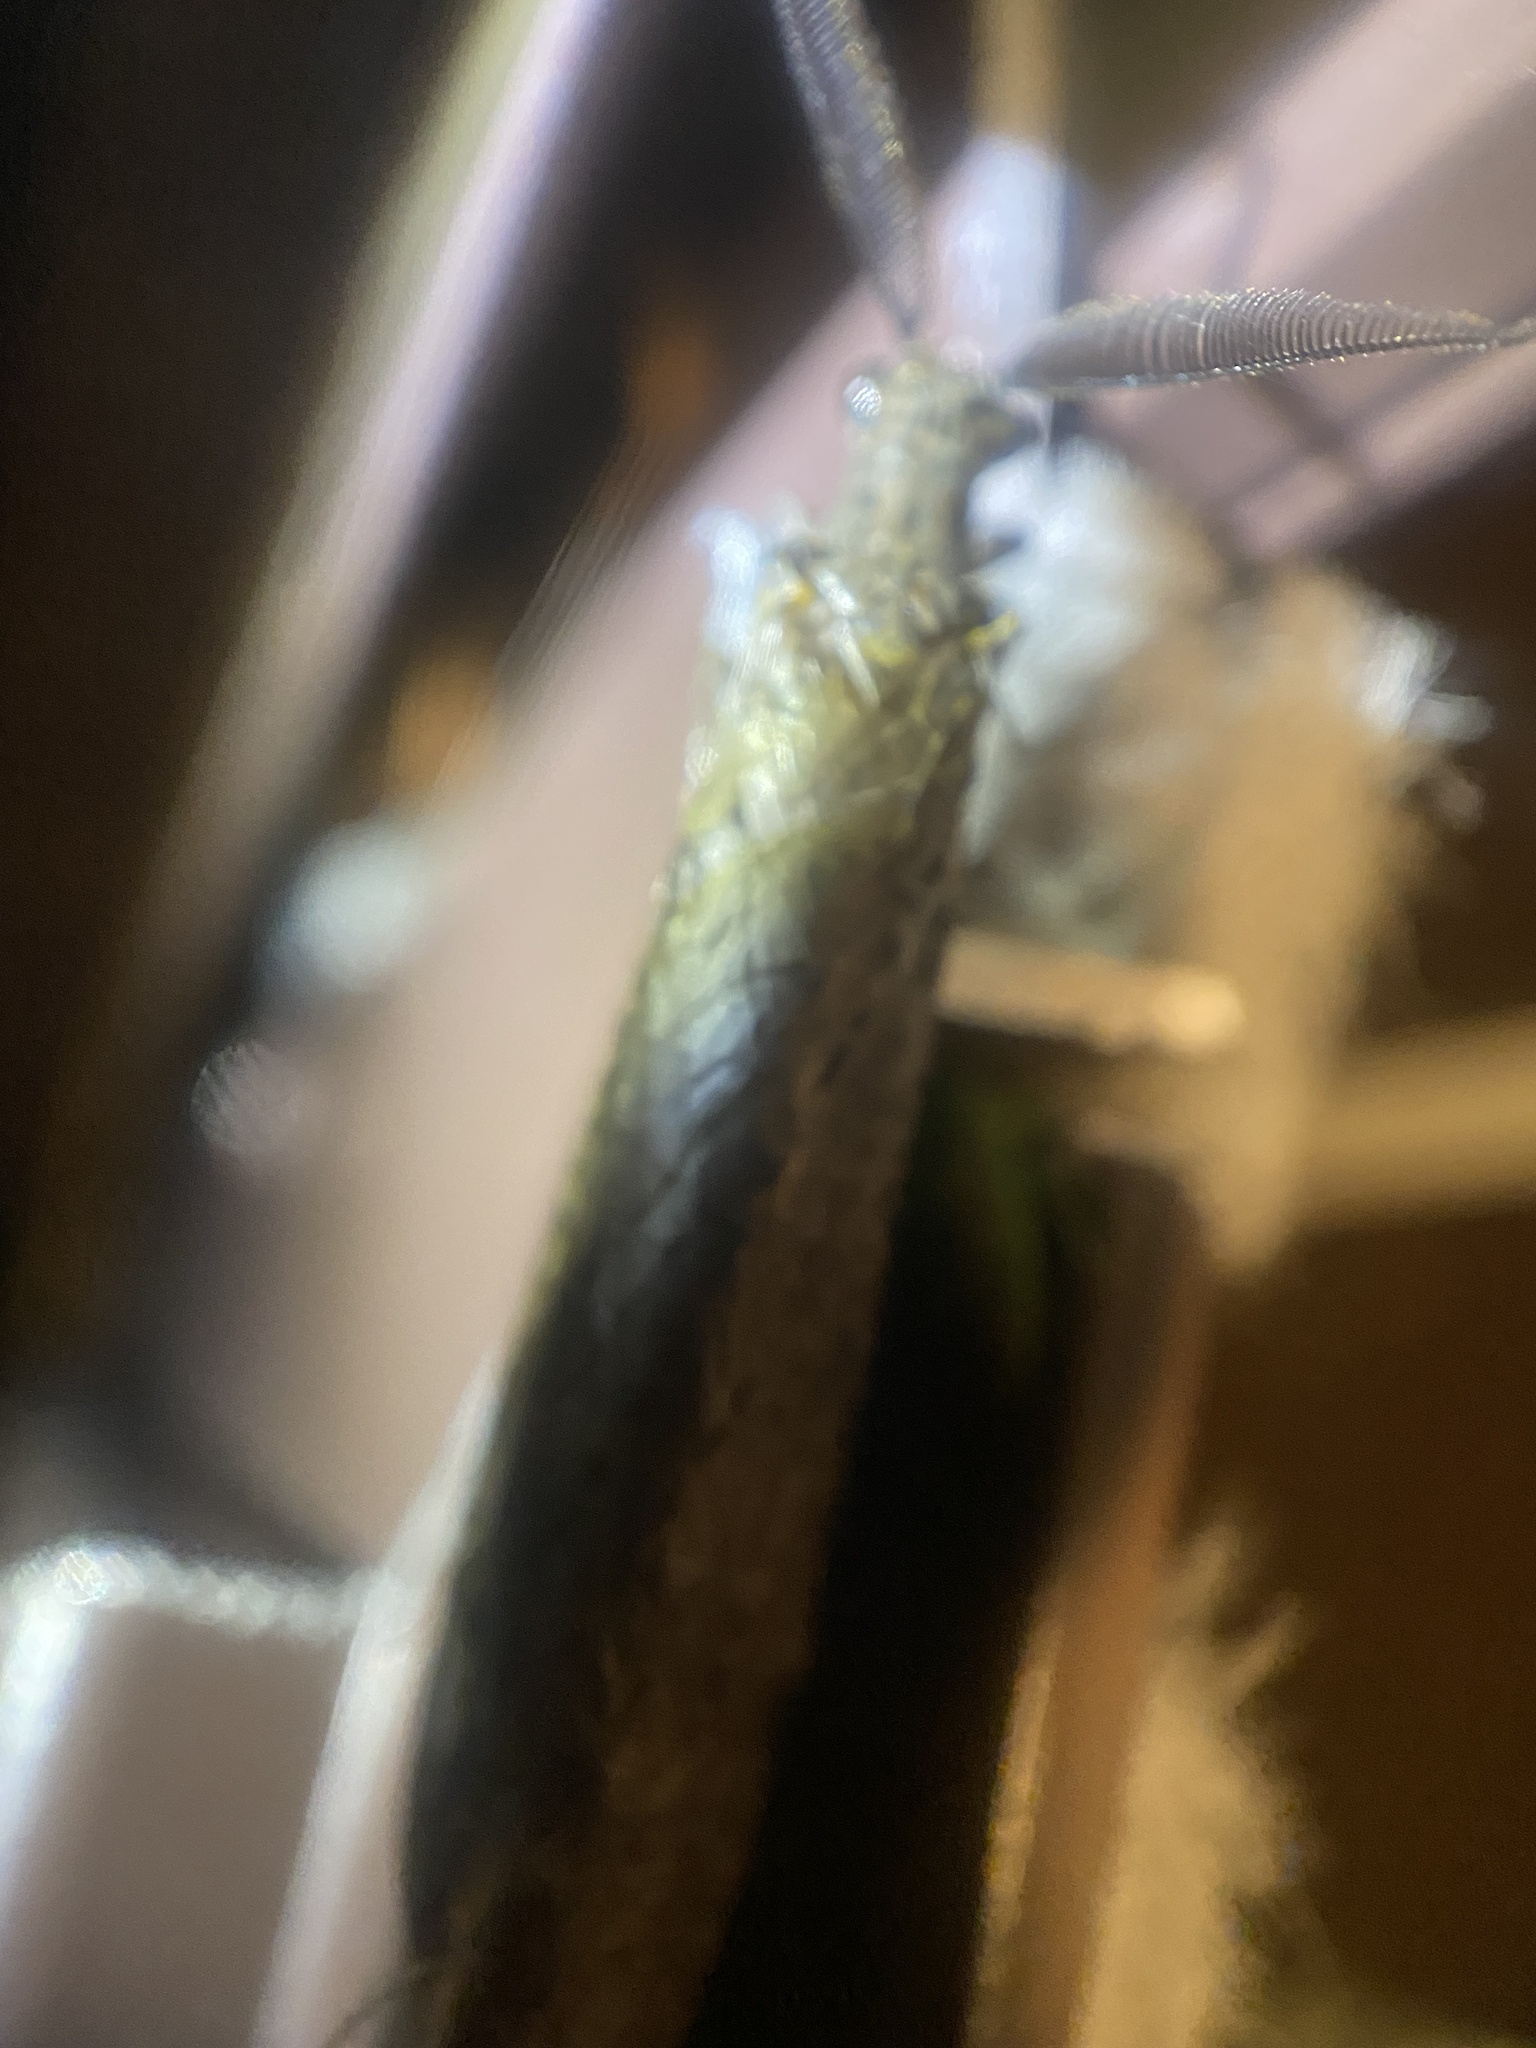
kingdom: Animalia
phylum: Arthropoda
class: Insecta
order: Megaloptera
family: Corydalidae
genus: Chauliodes
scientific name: Chauliodes rastricornis
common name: Spring fishfly
